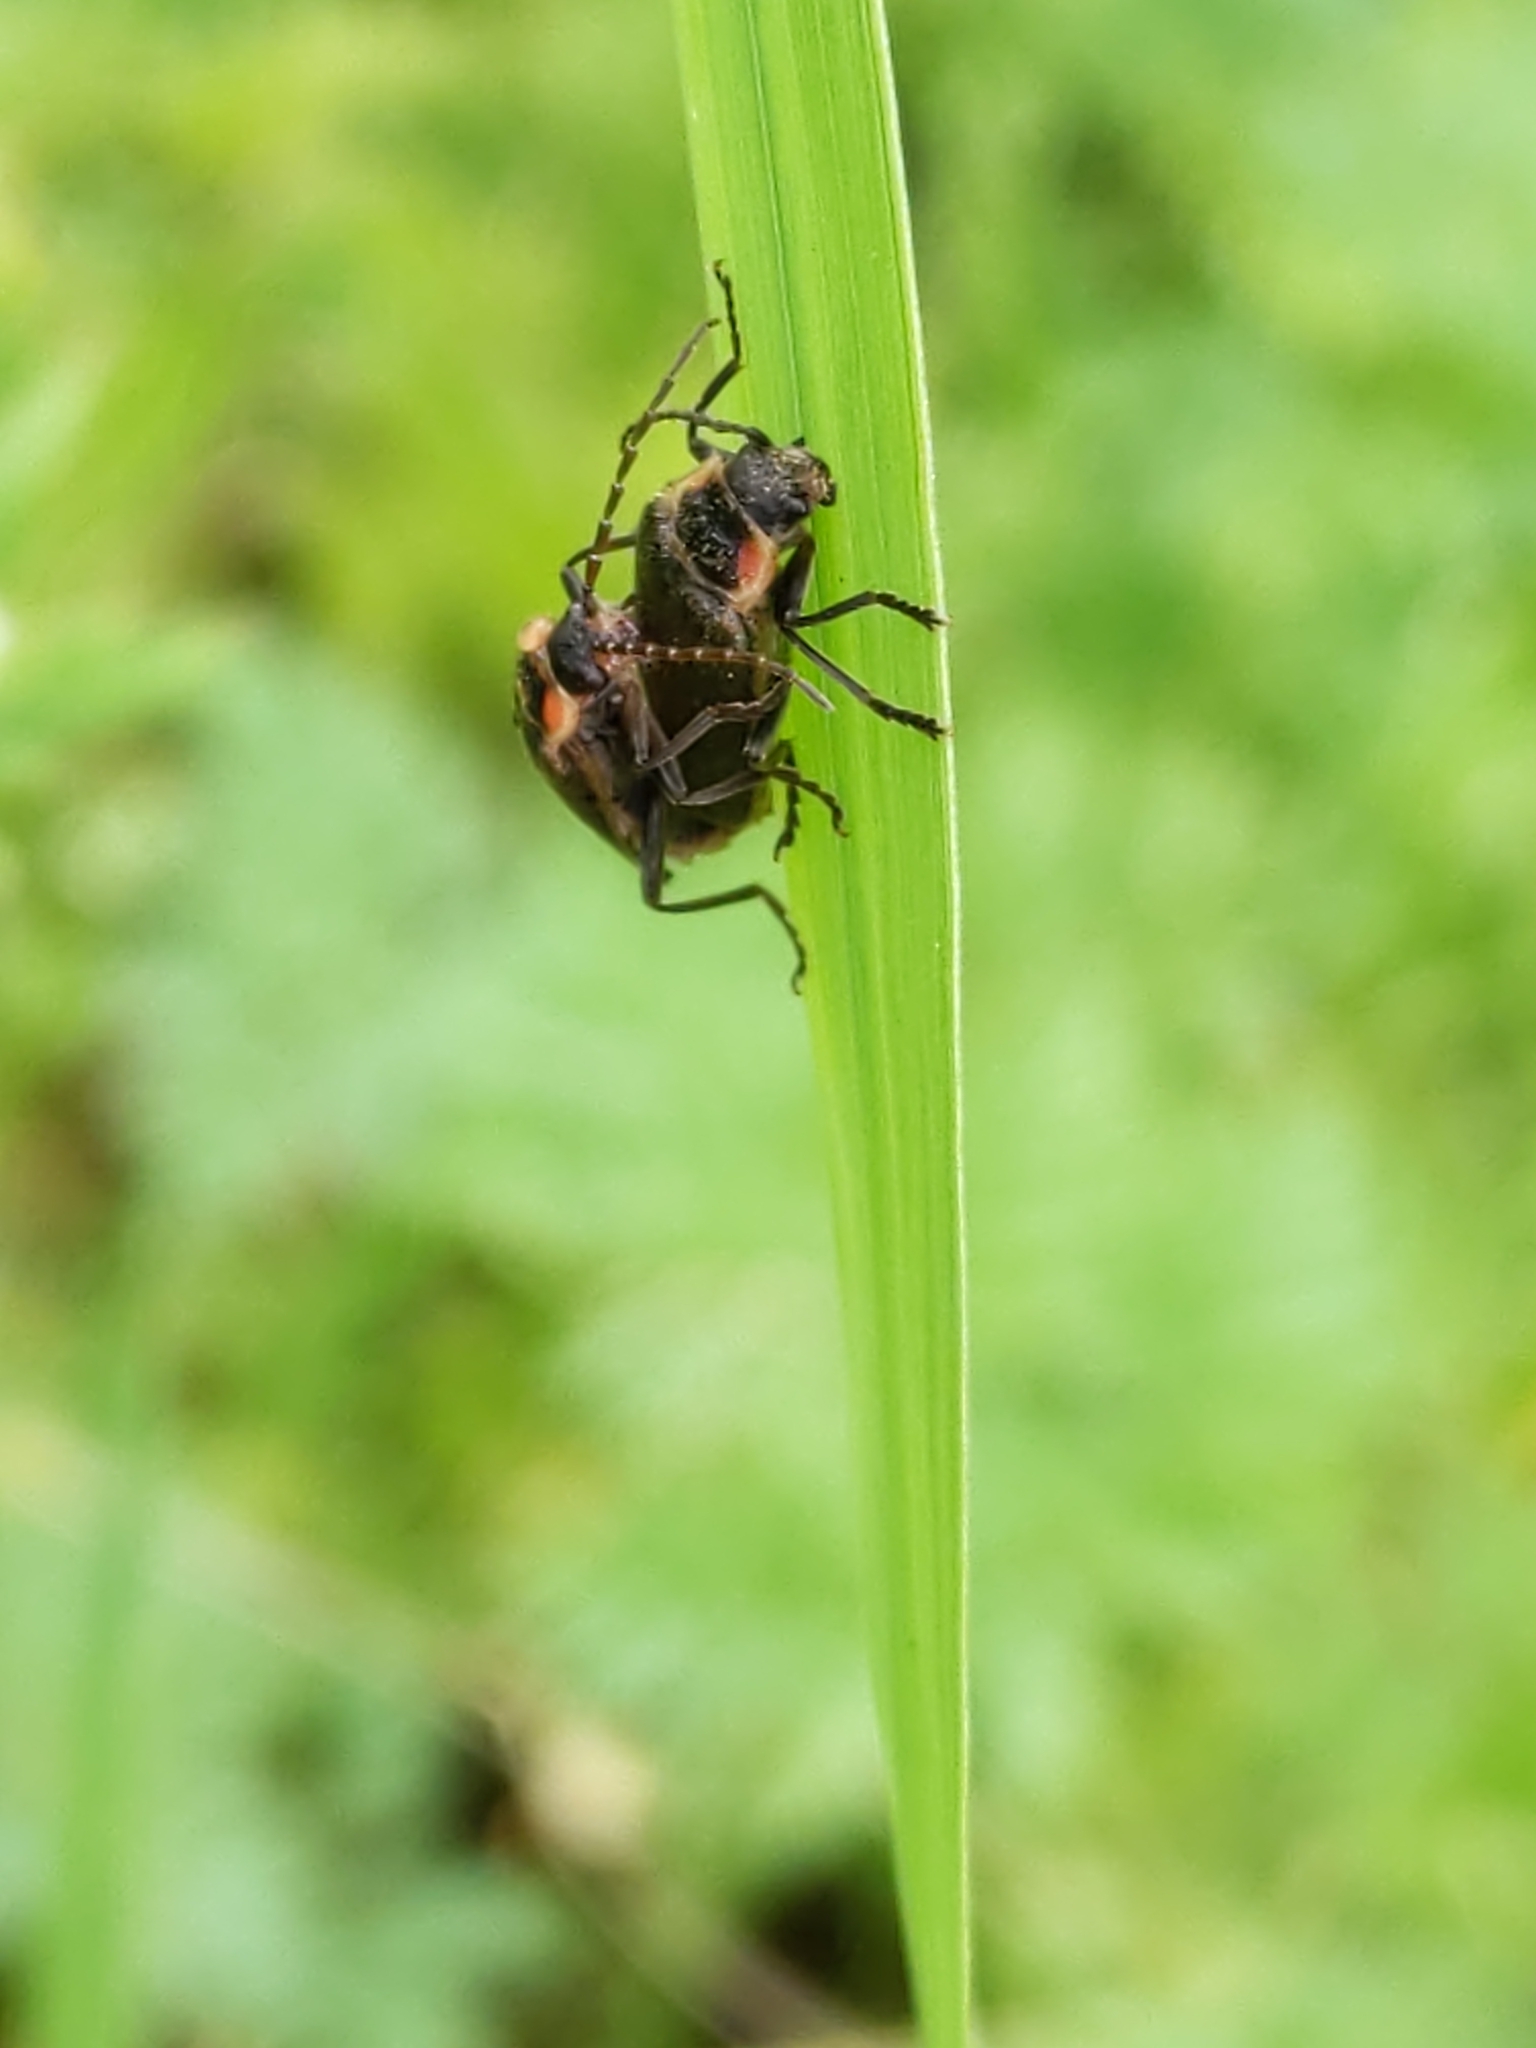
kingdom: Animalia
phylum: Arthropoda
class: Insecta
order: Coleoptera
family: Cantharidae
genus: Atalantycha
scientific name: Atalantycha dentigera
